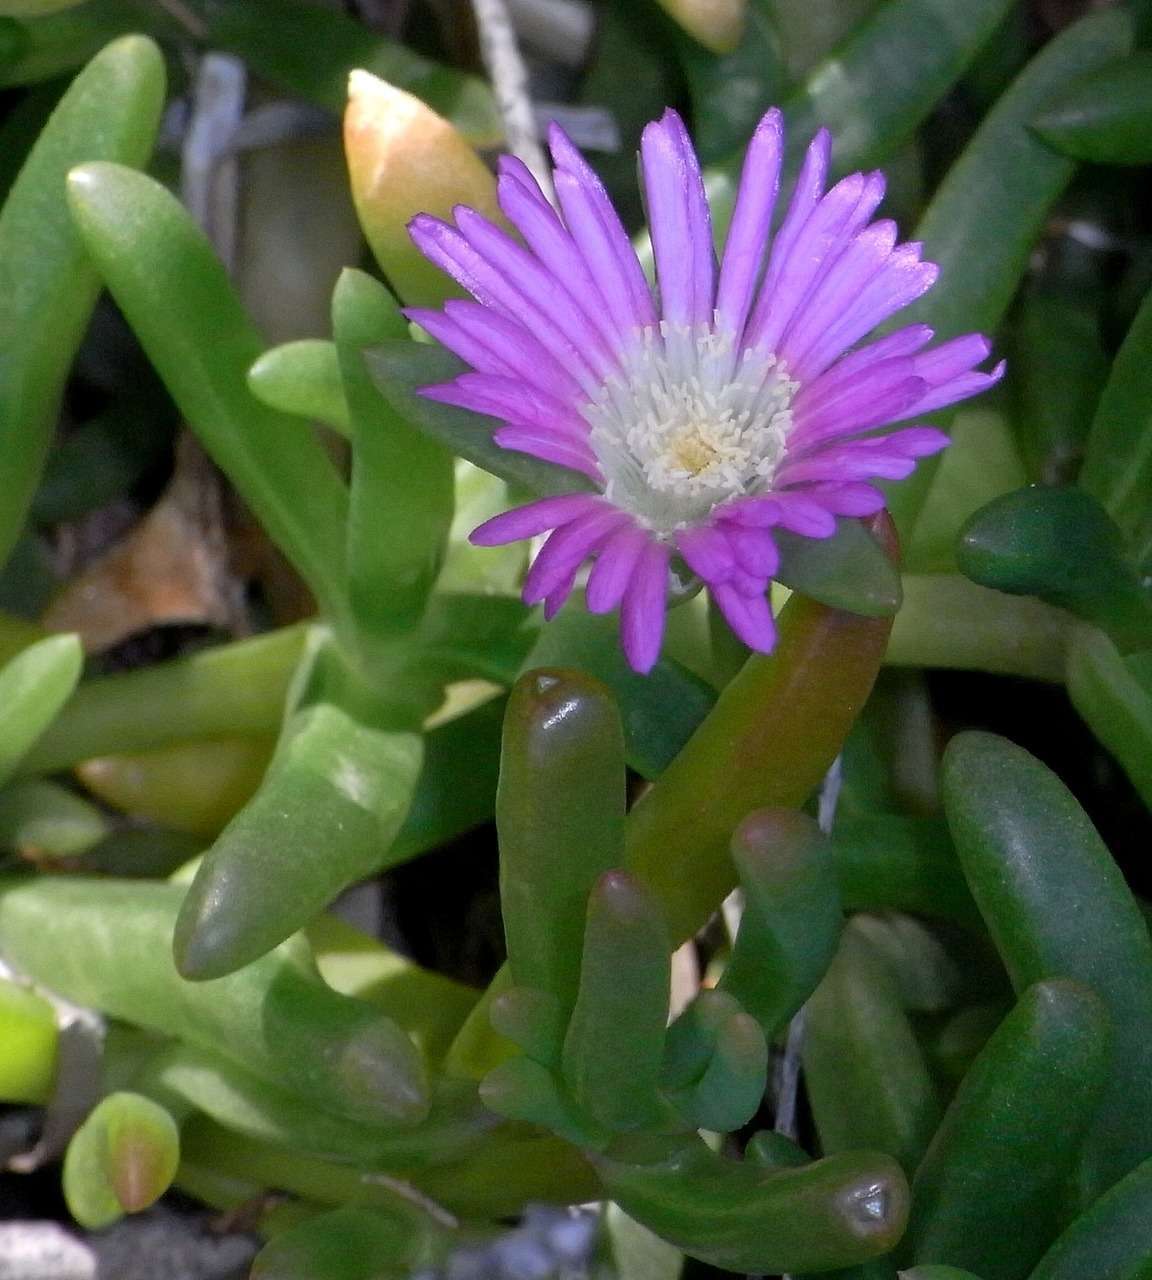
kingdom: Plantae
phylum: Tracheophyta
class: Magnoliopsida
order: Caryophyllales
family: Aizoaceae
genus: Disphyma
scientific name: Disphyma clavellatum
